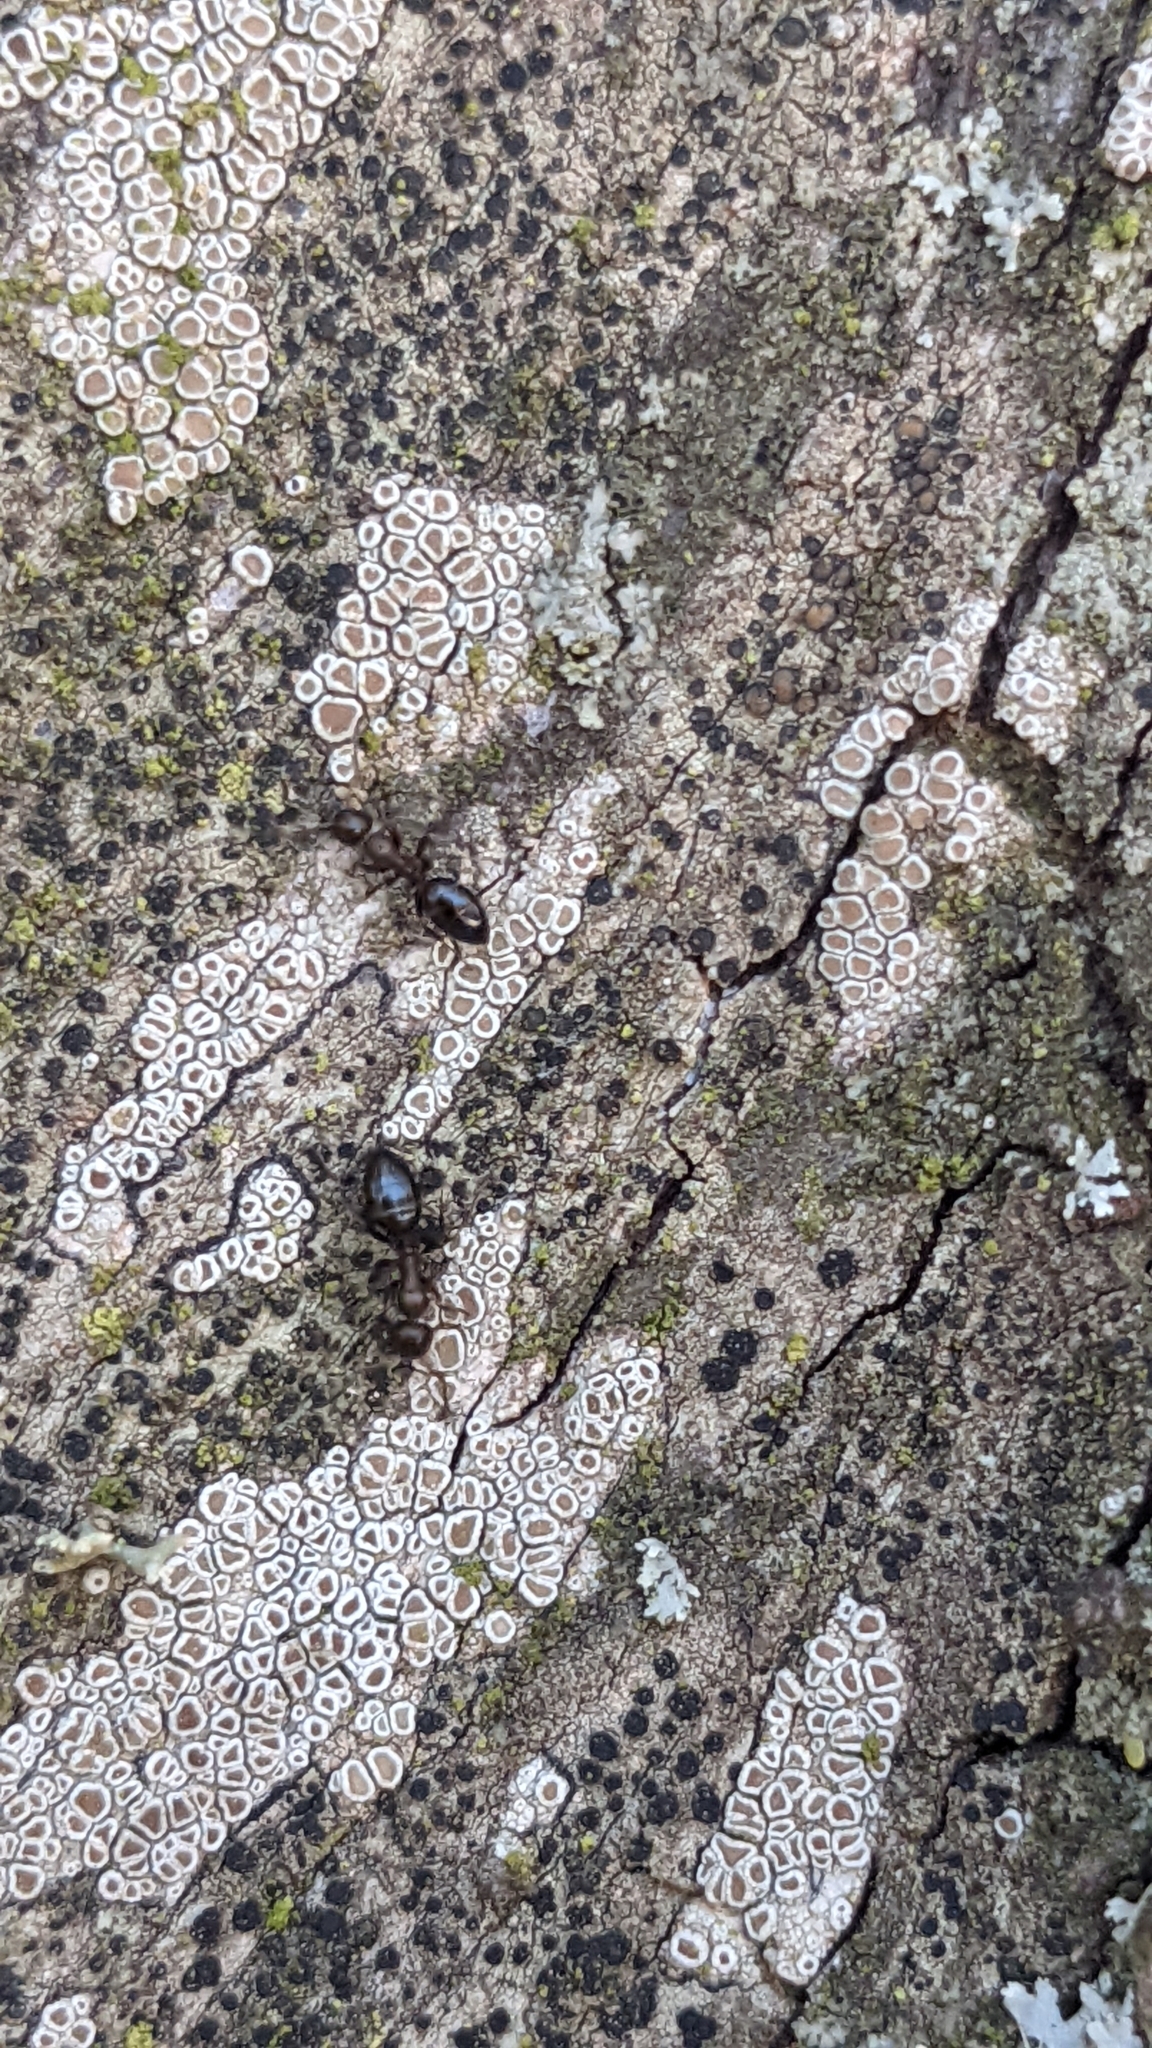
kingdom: Animalia
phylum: Arthropoda
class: Insecta
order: Hymenoptera
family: Formicidae
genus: Camponotus
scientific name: Camponotus truncatus
